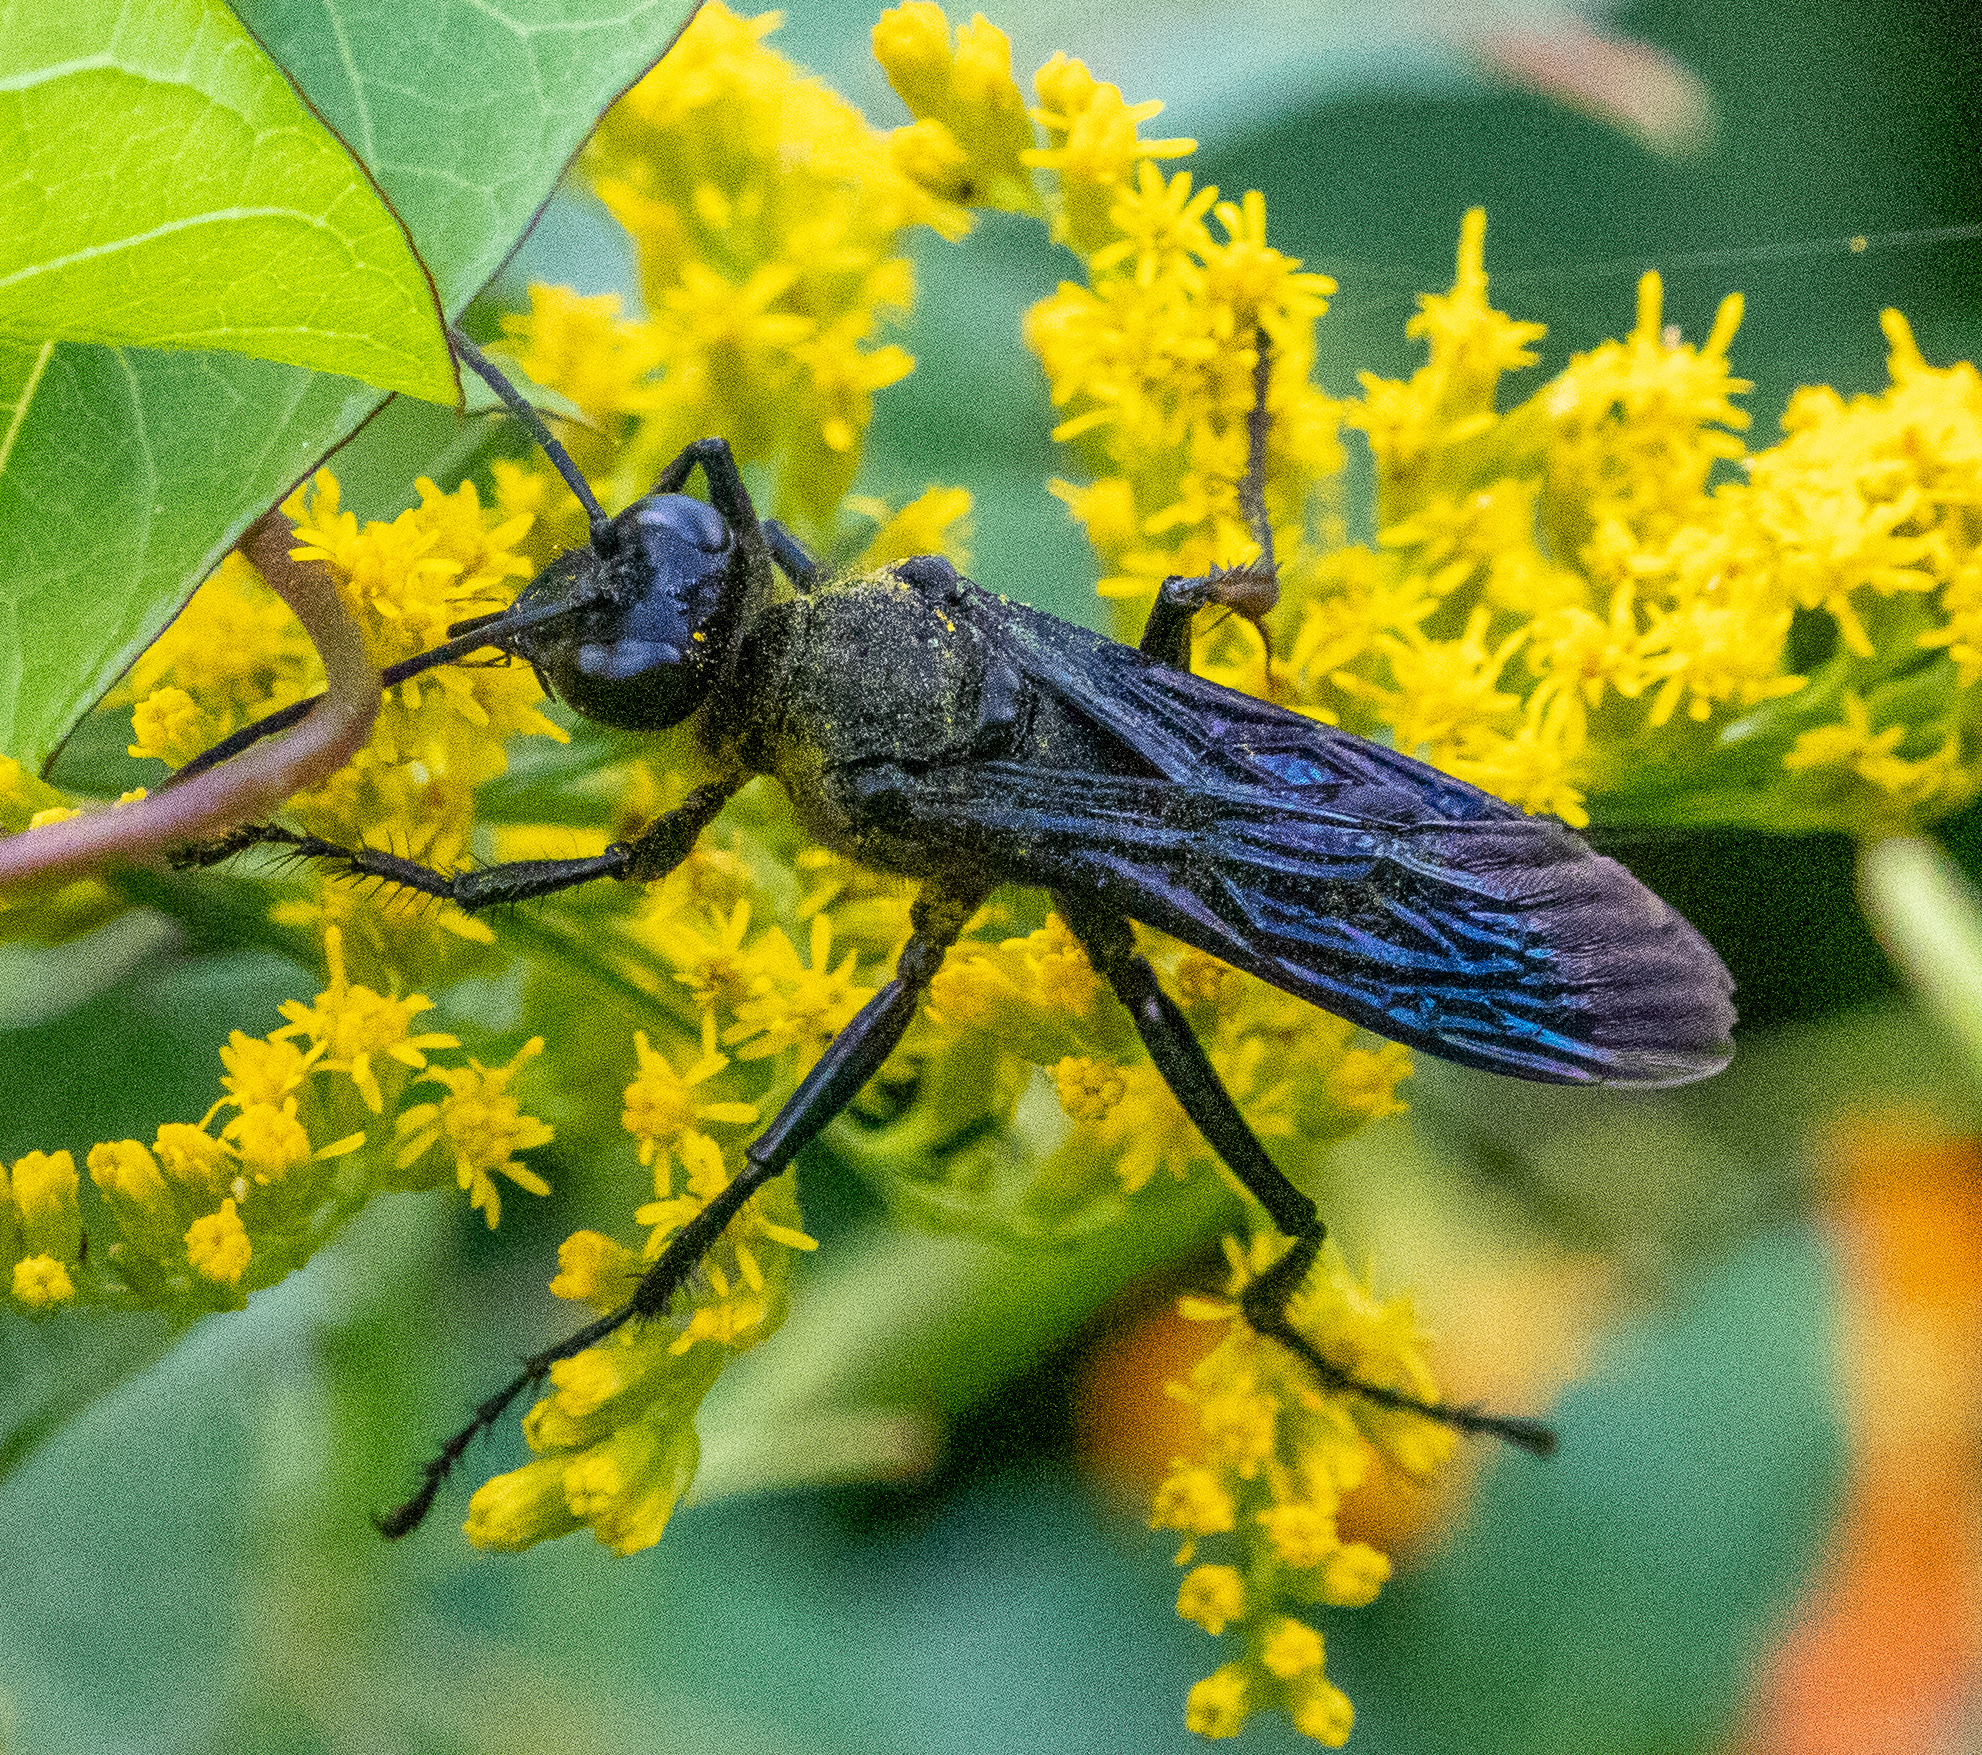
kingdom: Animalia
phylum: Arthropoda
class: Insecta
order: Hymenoptera
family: Sphecidae
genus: Sphex
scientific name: Sphex pensylvanicus
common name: Great black digger wasp
